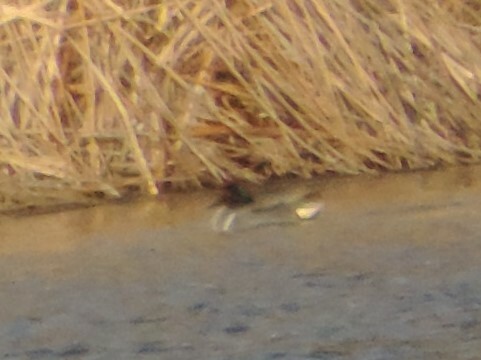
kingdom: Animalia
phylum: Chordata
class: Aves
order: Anseriformes
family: Anatidae
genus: Anas
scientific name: Anas carolinensis
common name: Green-winged teal
